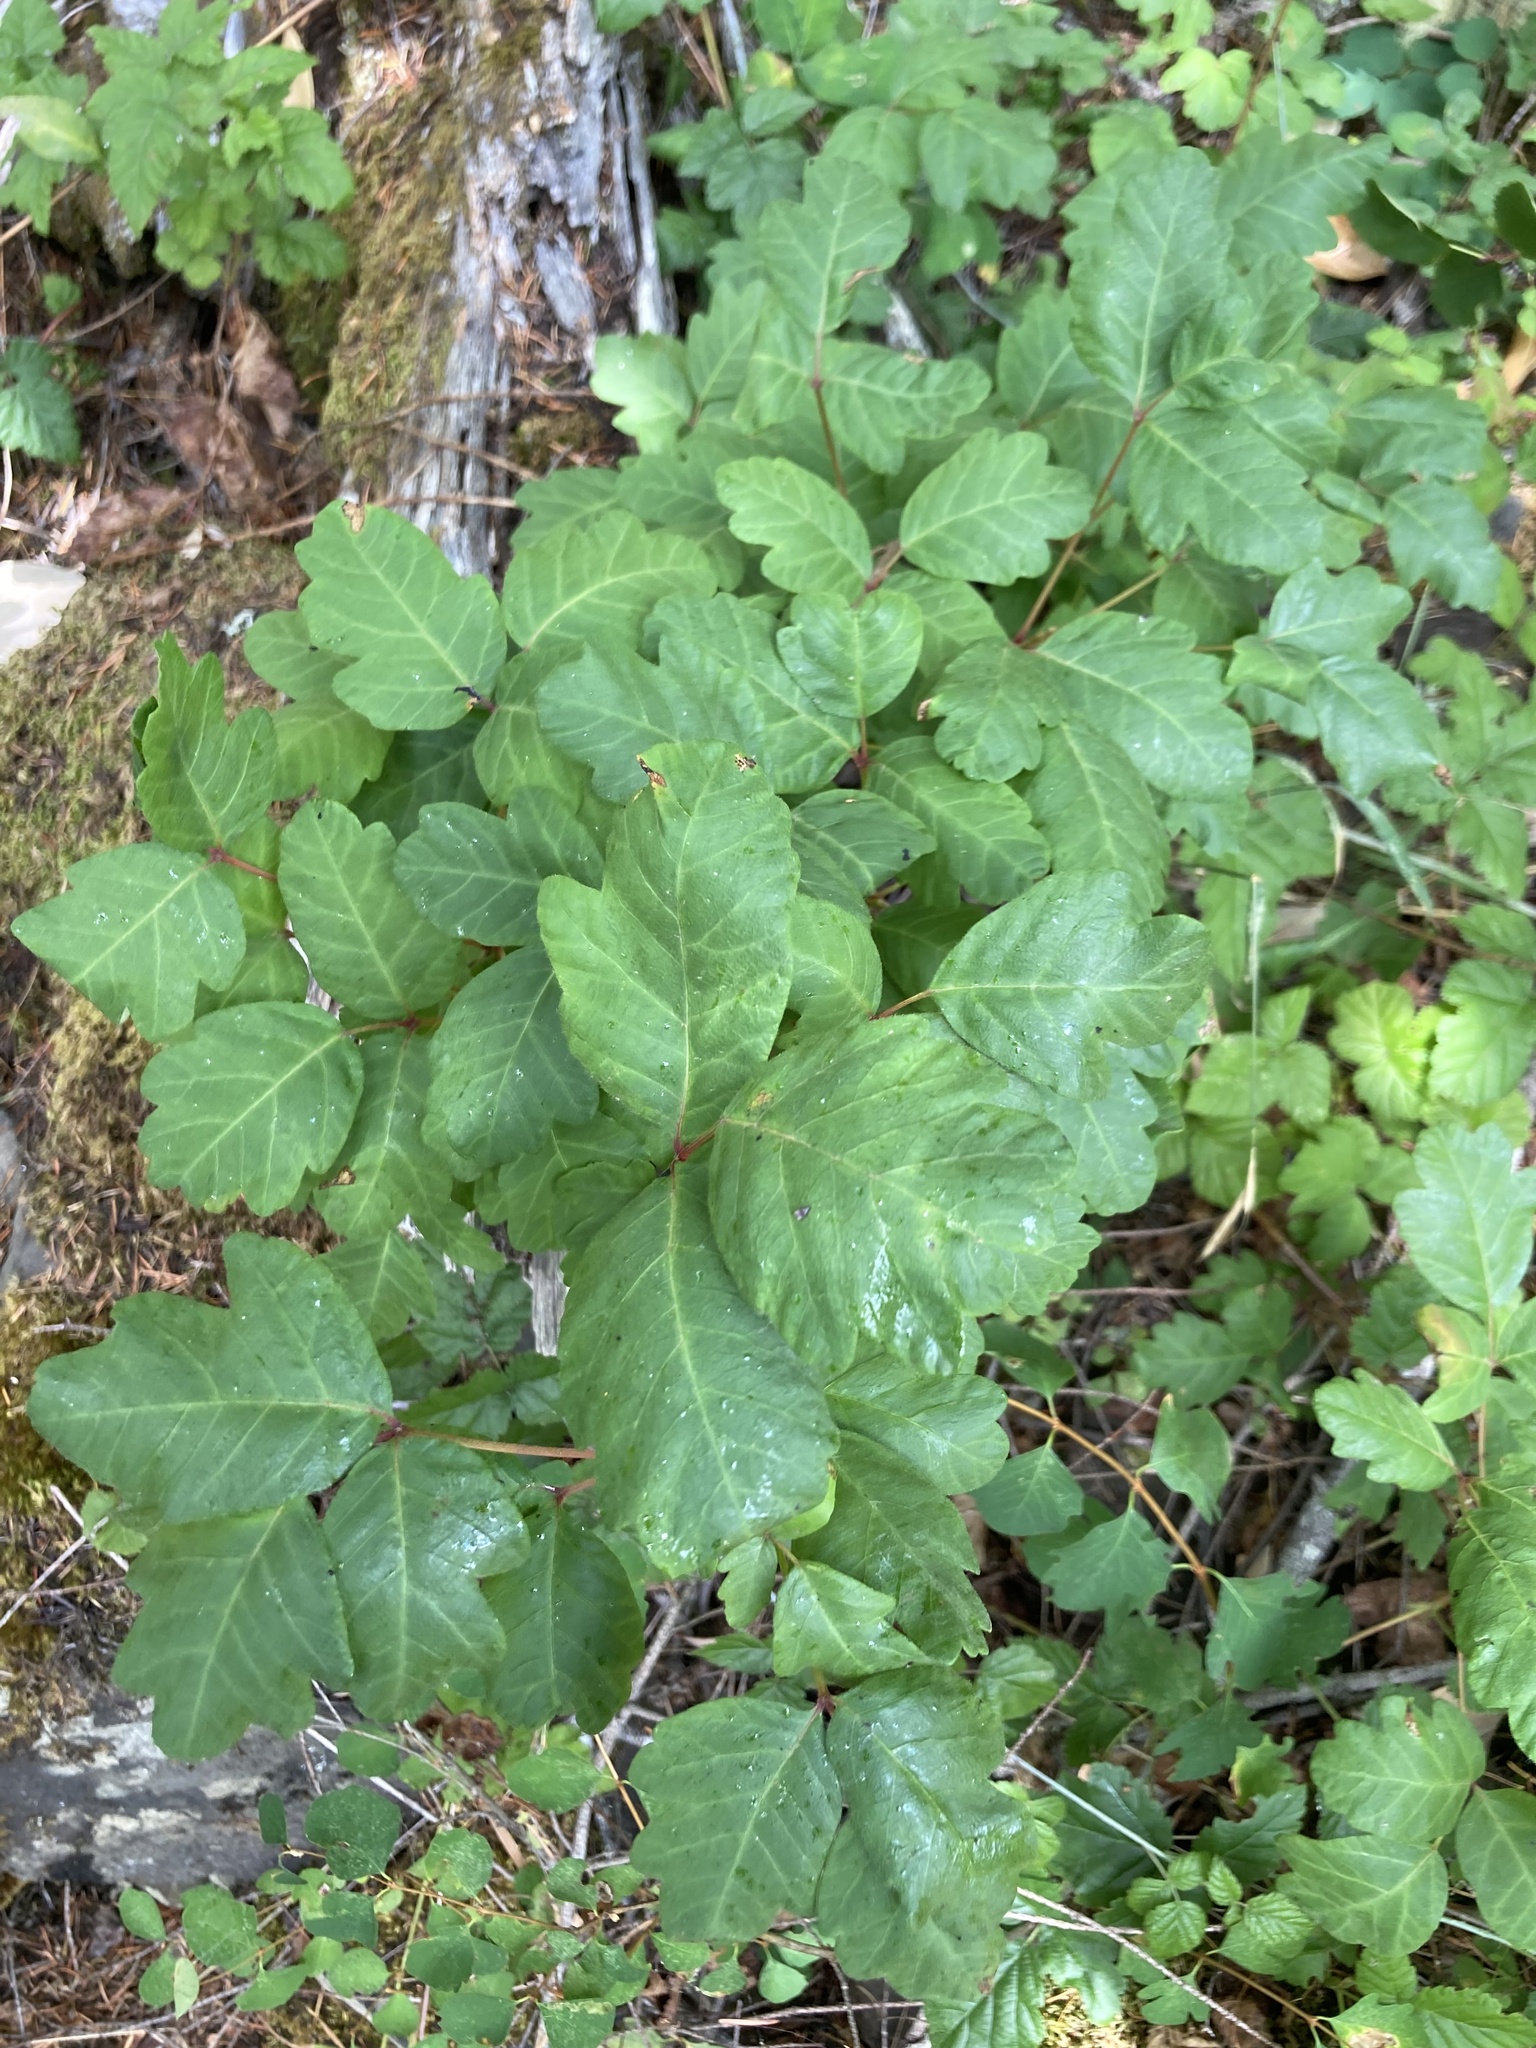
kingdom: Plantae
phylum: Tracheophyta
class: Magnoliopsida
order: Sapindales
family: Anacardiaceae
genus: Toxicodendron
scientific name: Toxicodendron diversilobum
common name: Pacific poison-oak
